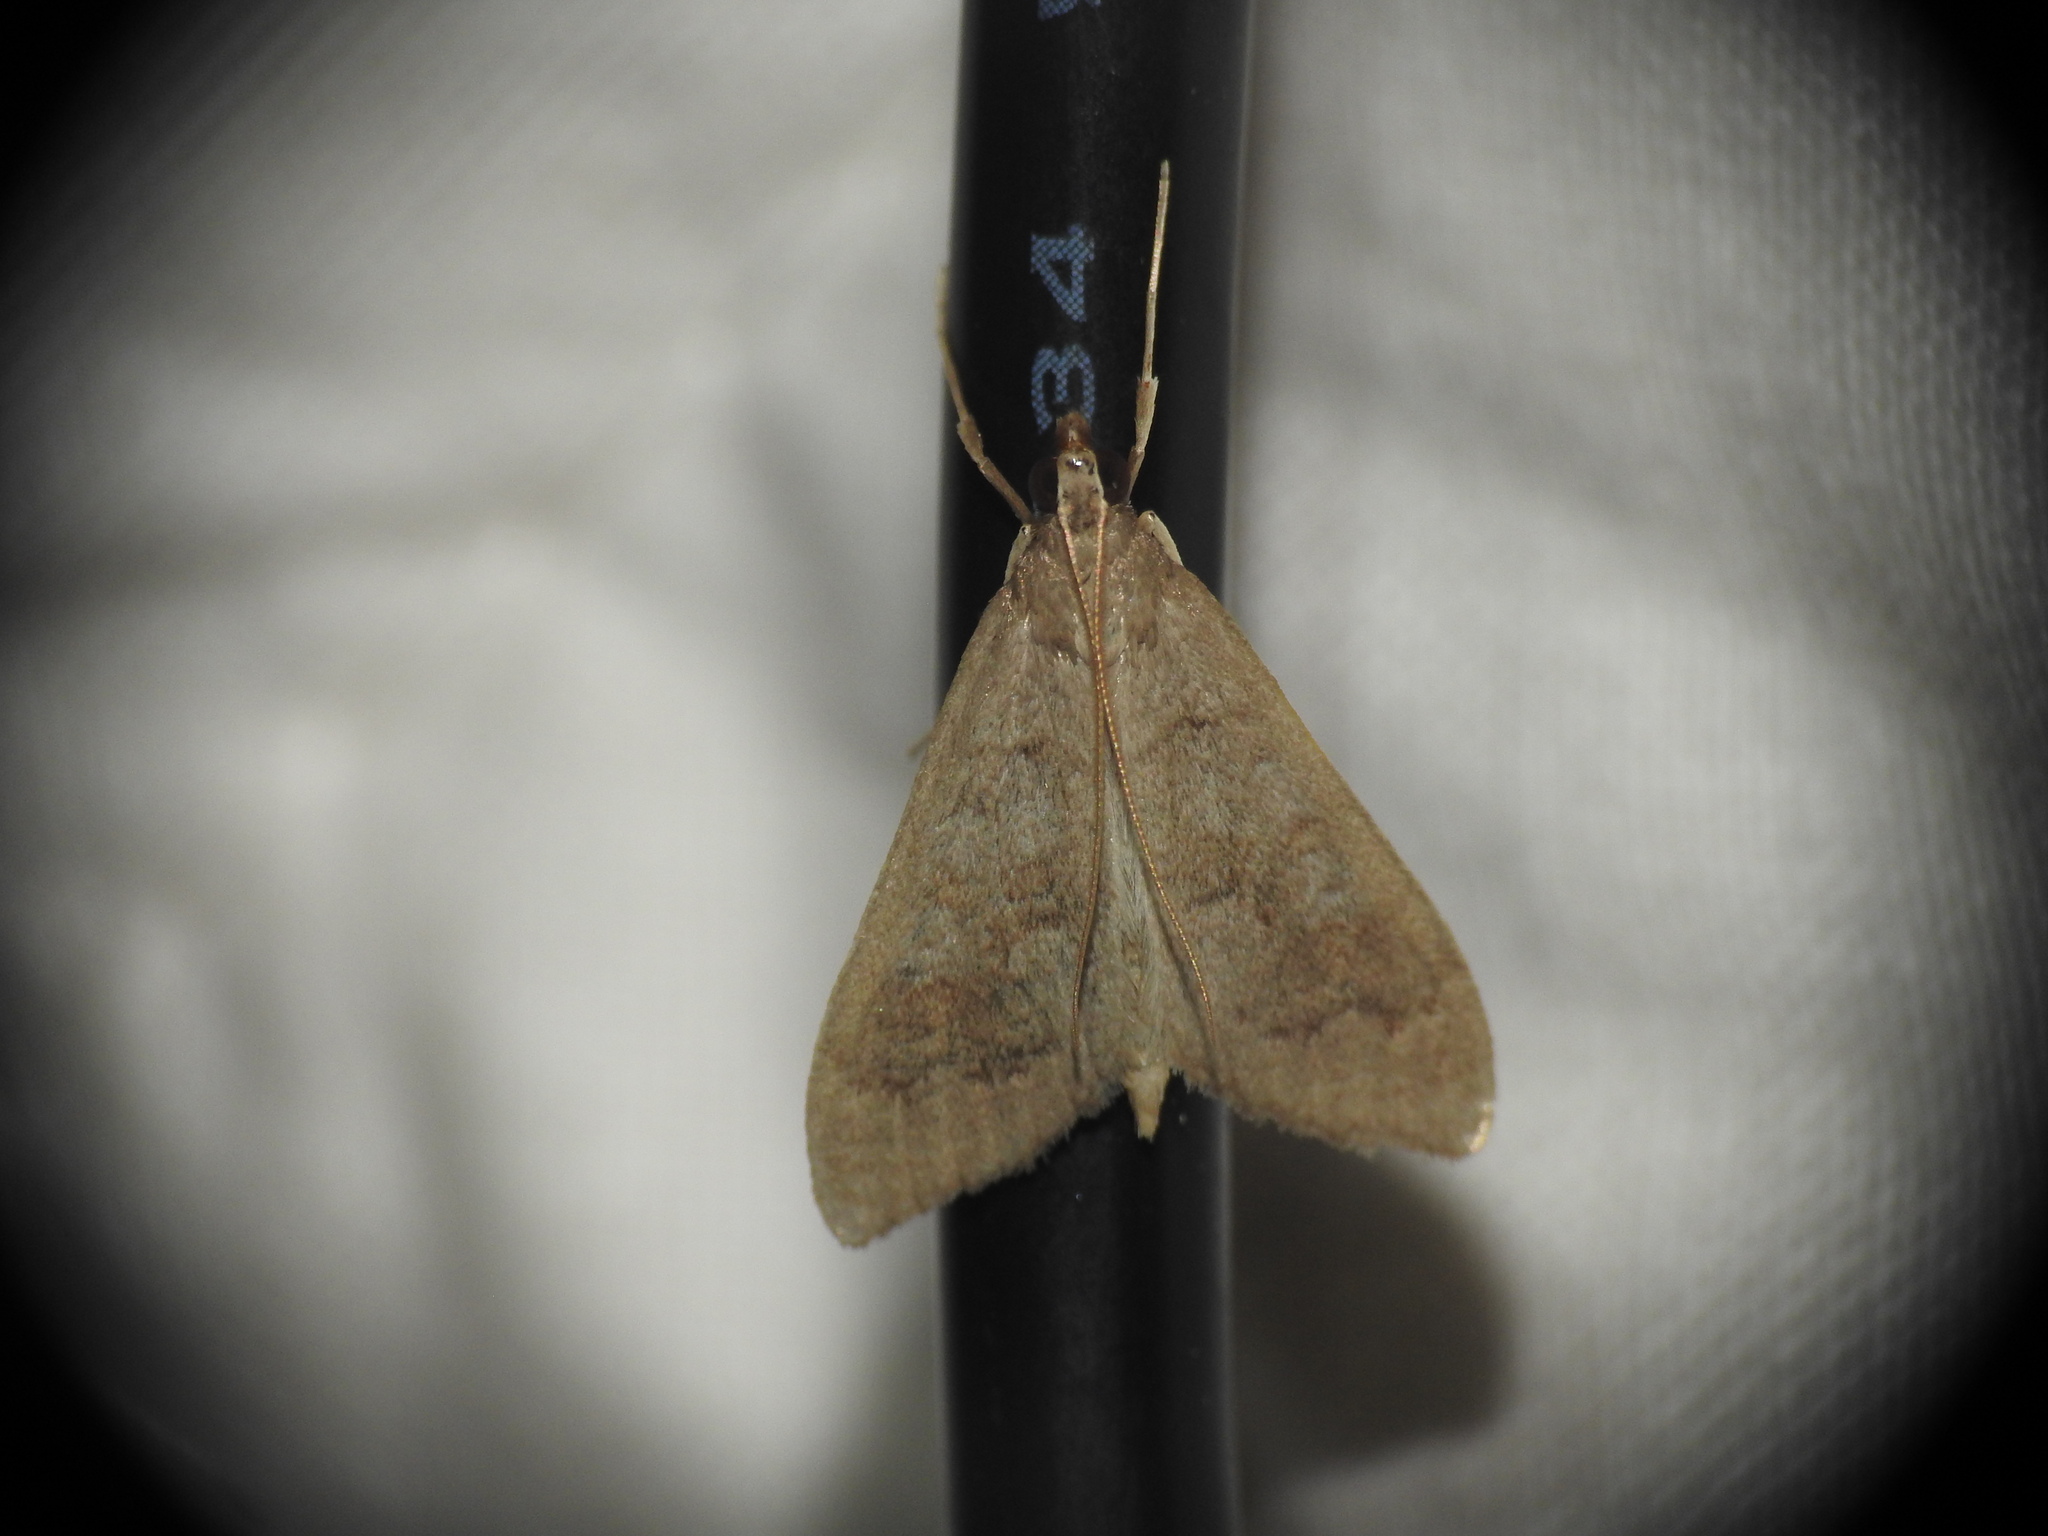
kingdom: Animalia
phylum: Arthropoda
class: Insecta
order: Lepidoptera
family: Crambidae
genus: Mecyna
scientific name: Mecyna asinalis
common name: Coastal pearl
